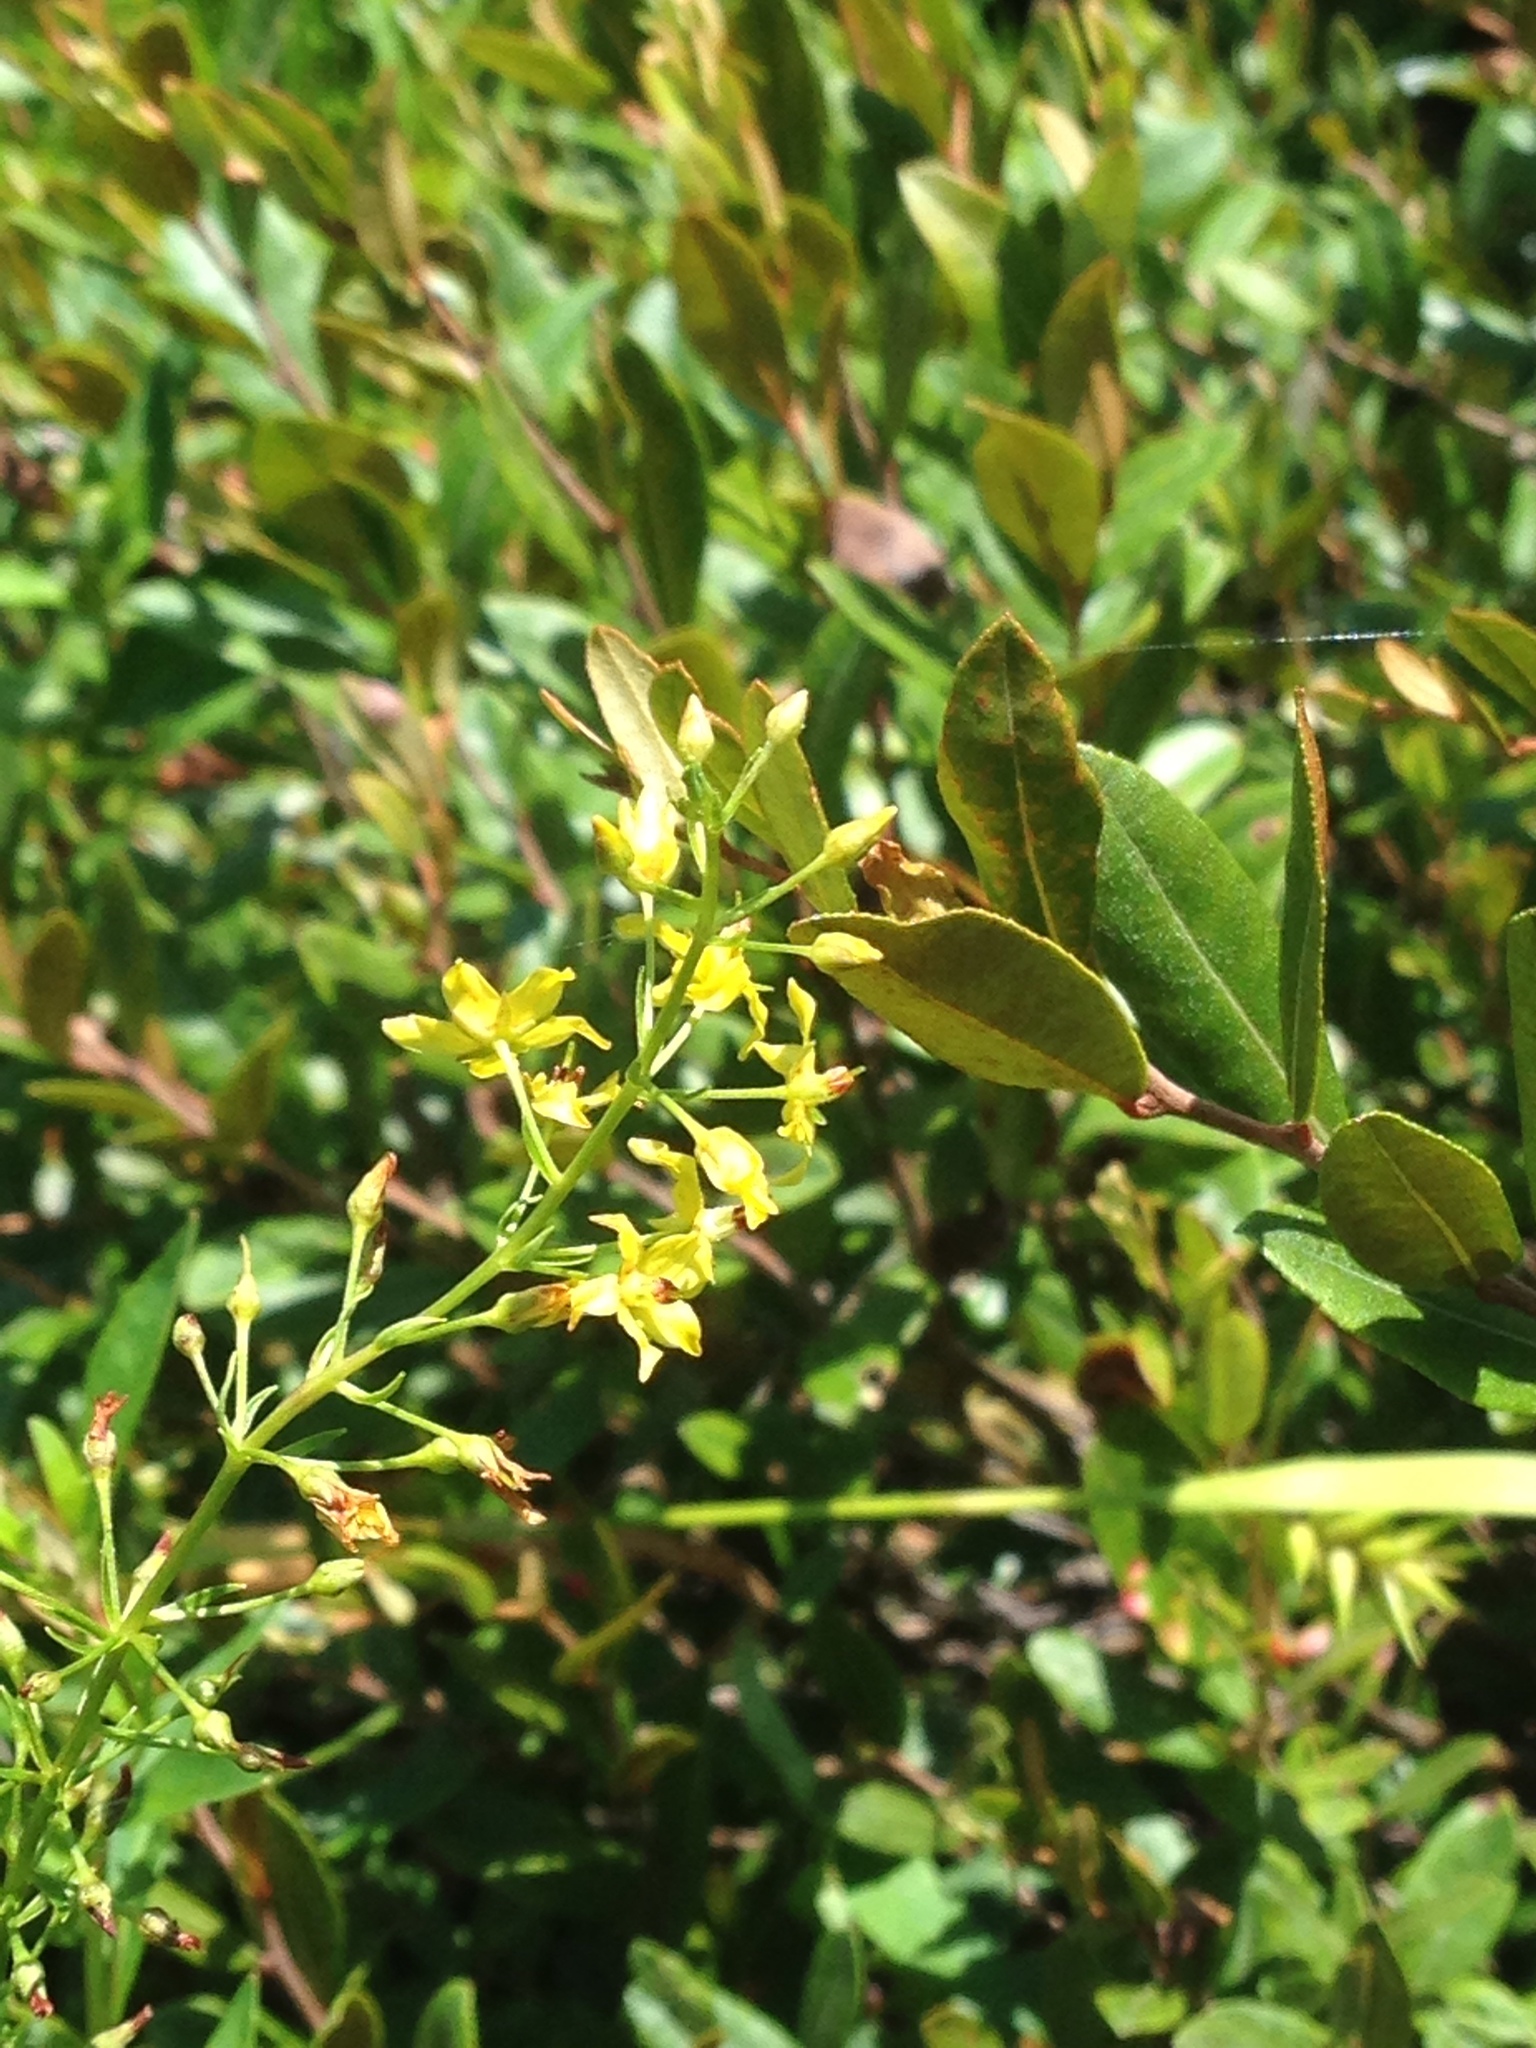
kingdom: Plantae
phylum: Tracheophyta
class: Magnoliopsida
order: Ericales
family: Primulaceae
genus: Lysimachia
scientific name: Lysimachia terrestris
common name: Lake loosestrife
